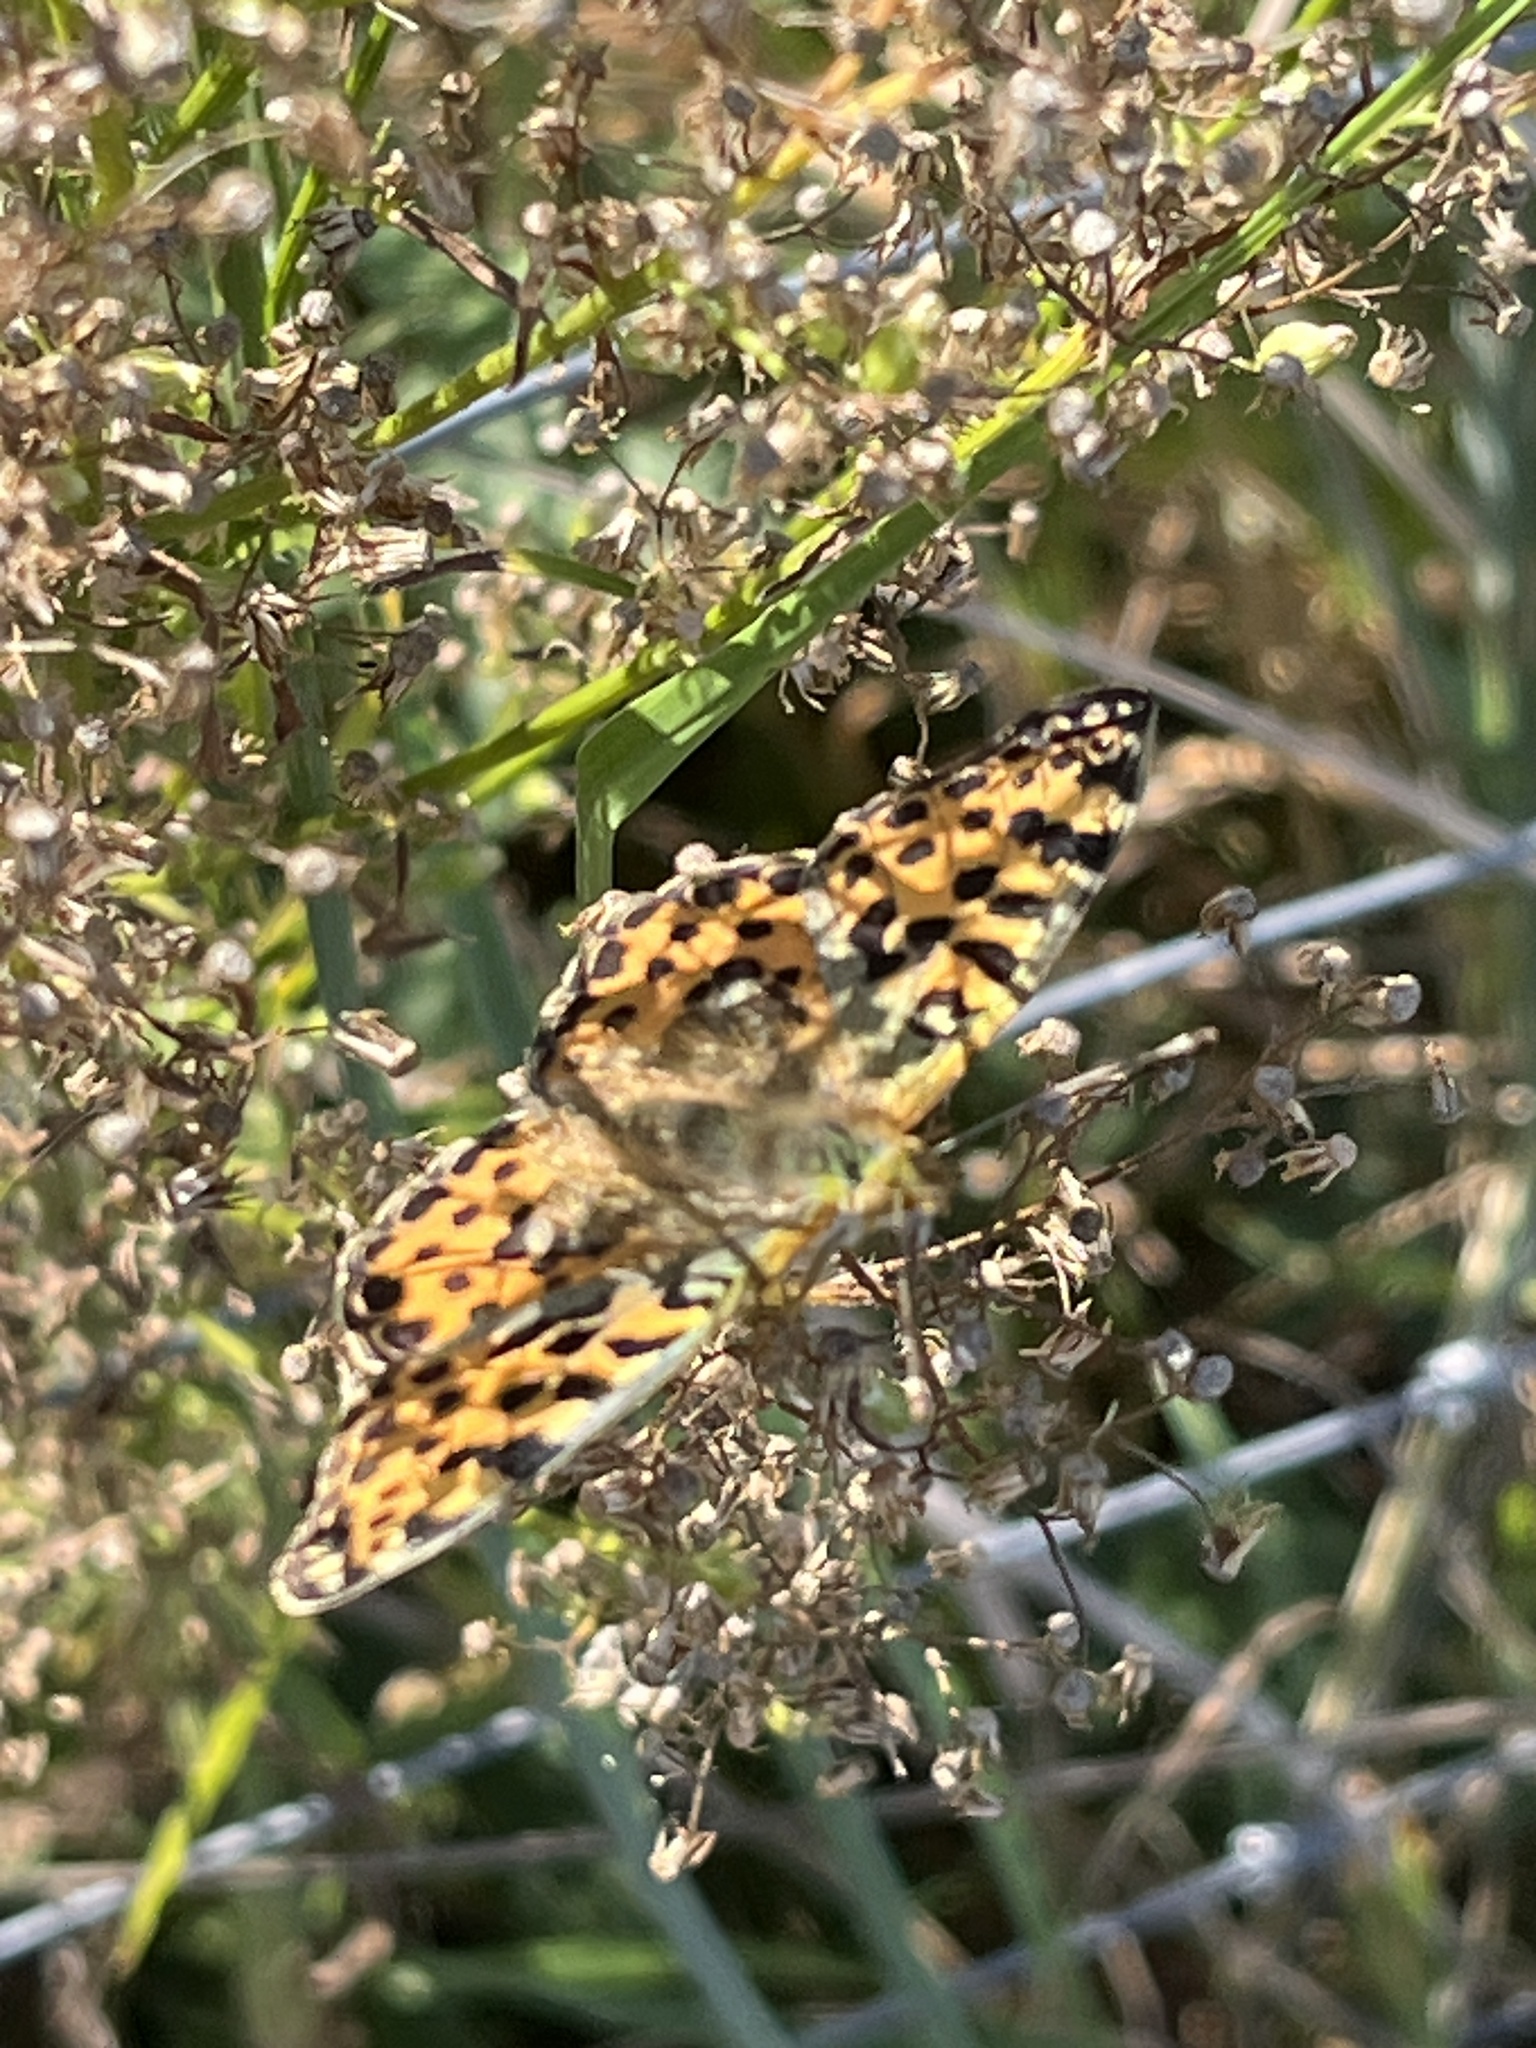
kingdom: Animalia
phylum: Arthropoda
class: Insecta
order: Lepidoptera
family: Nymphalidae
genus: Issoria
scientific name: Issoria lathonia
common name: Queen of spain fritillary
